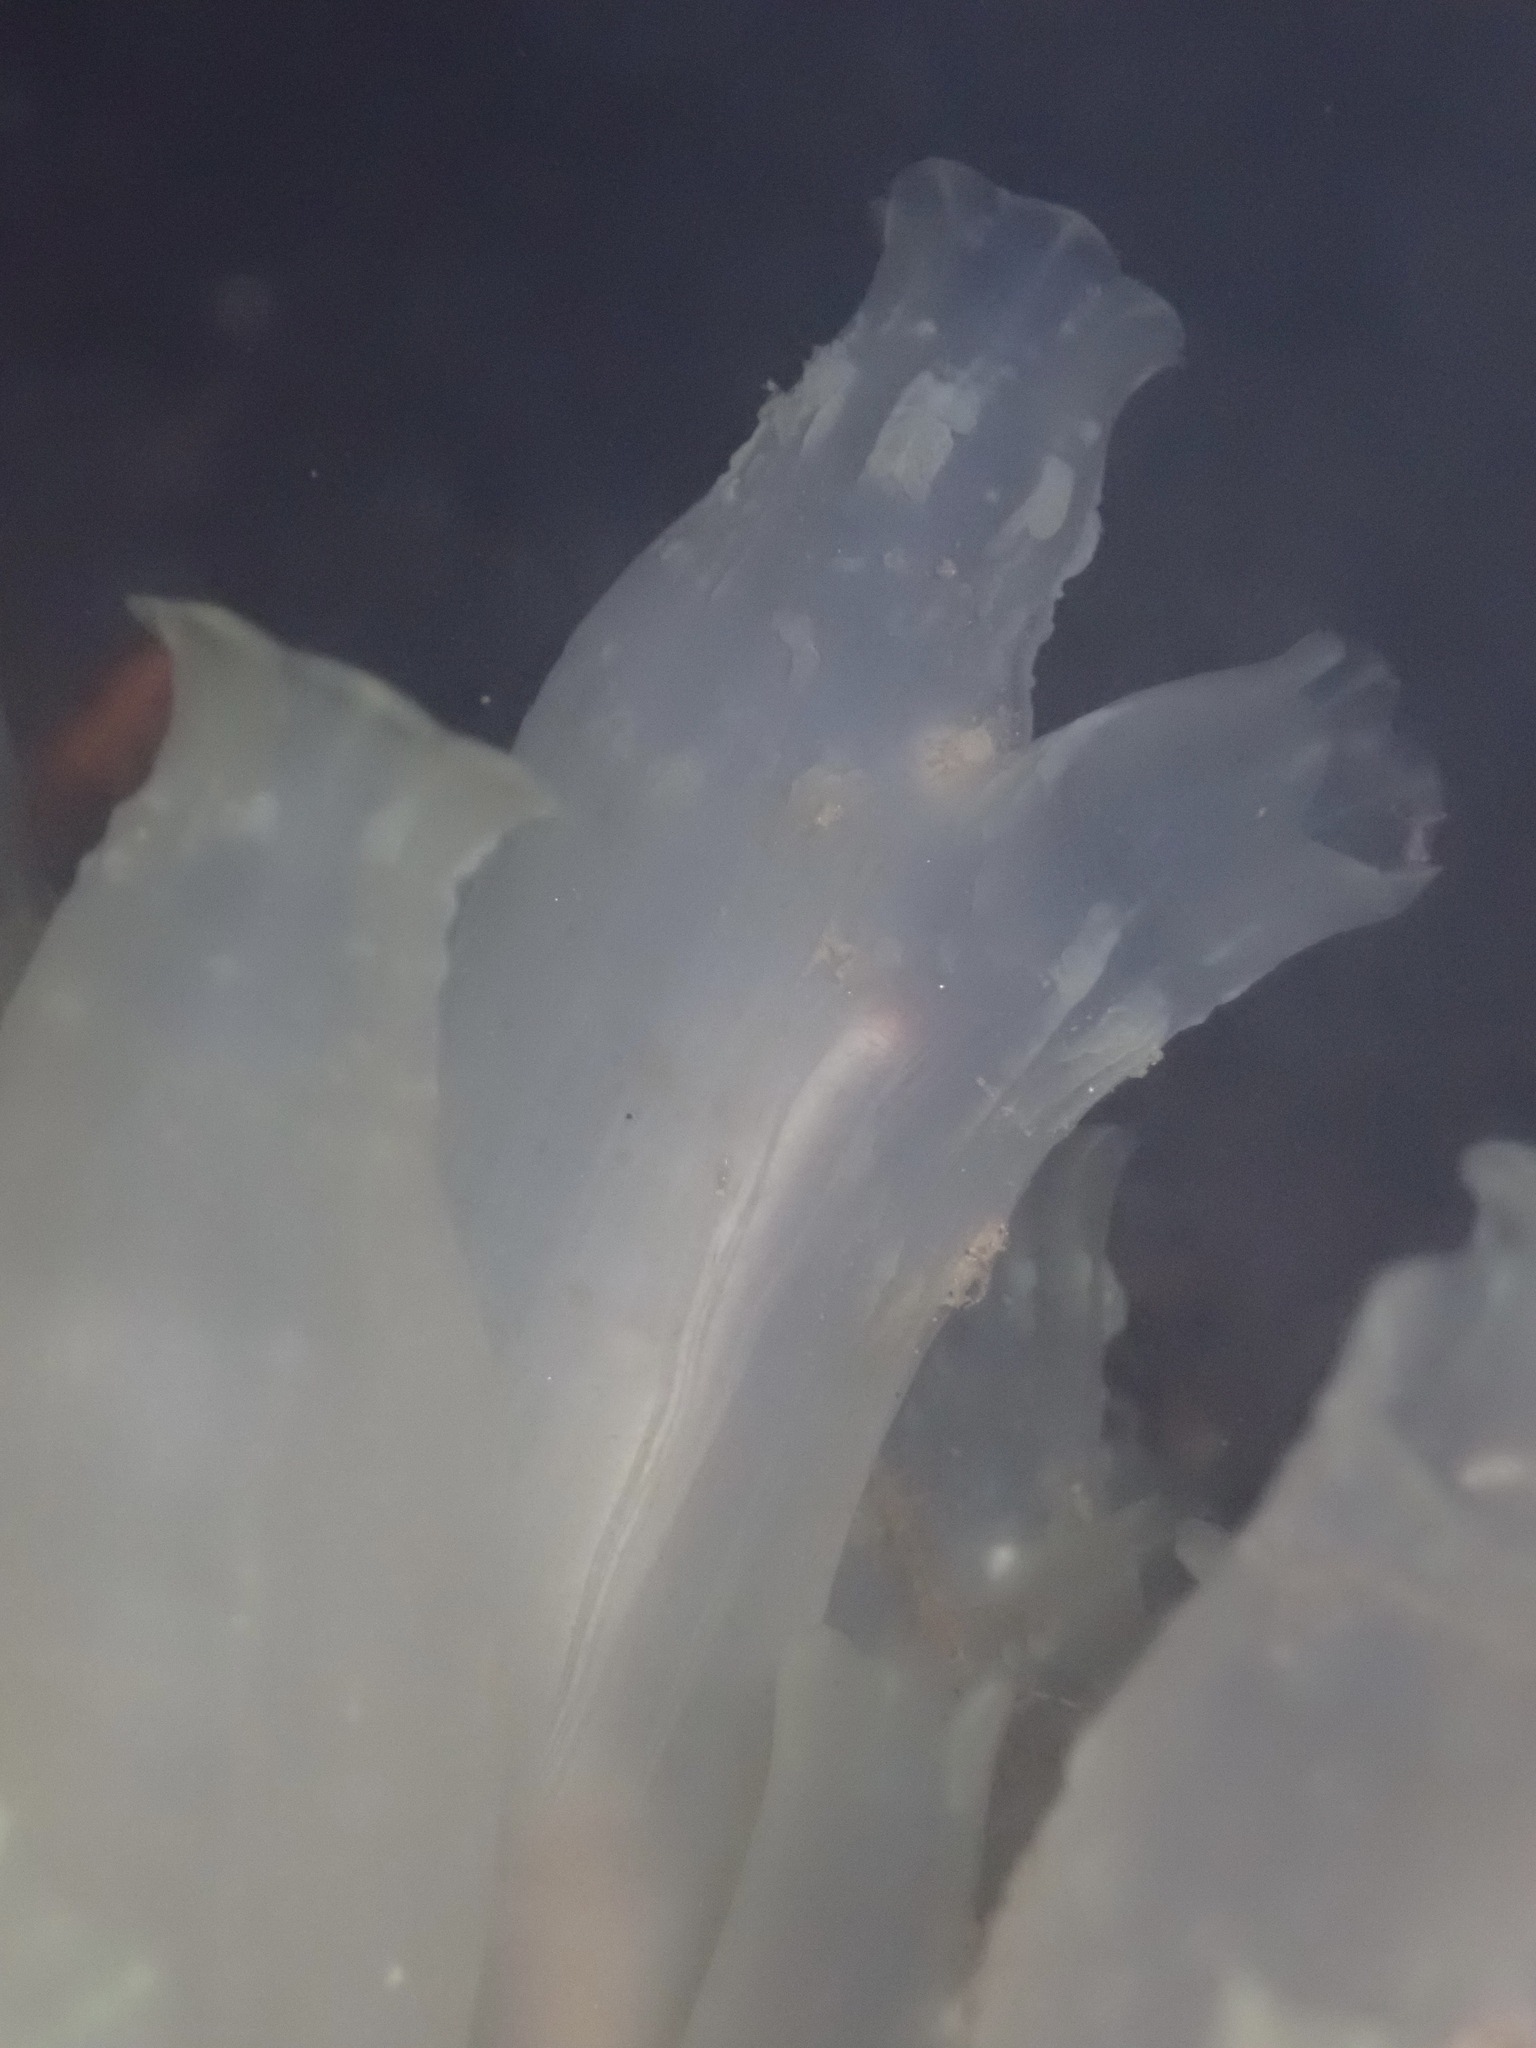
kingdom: Animalia
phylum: Chordata
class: Ascidiacea
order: Phlebobranchia
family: Cionidae
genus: Ciona
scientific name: Ciona robusta
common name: Tunicate
